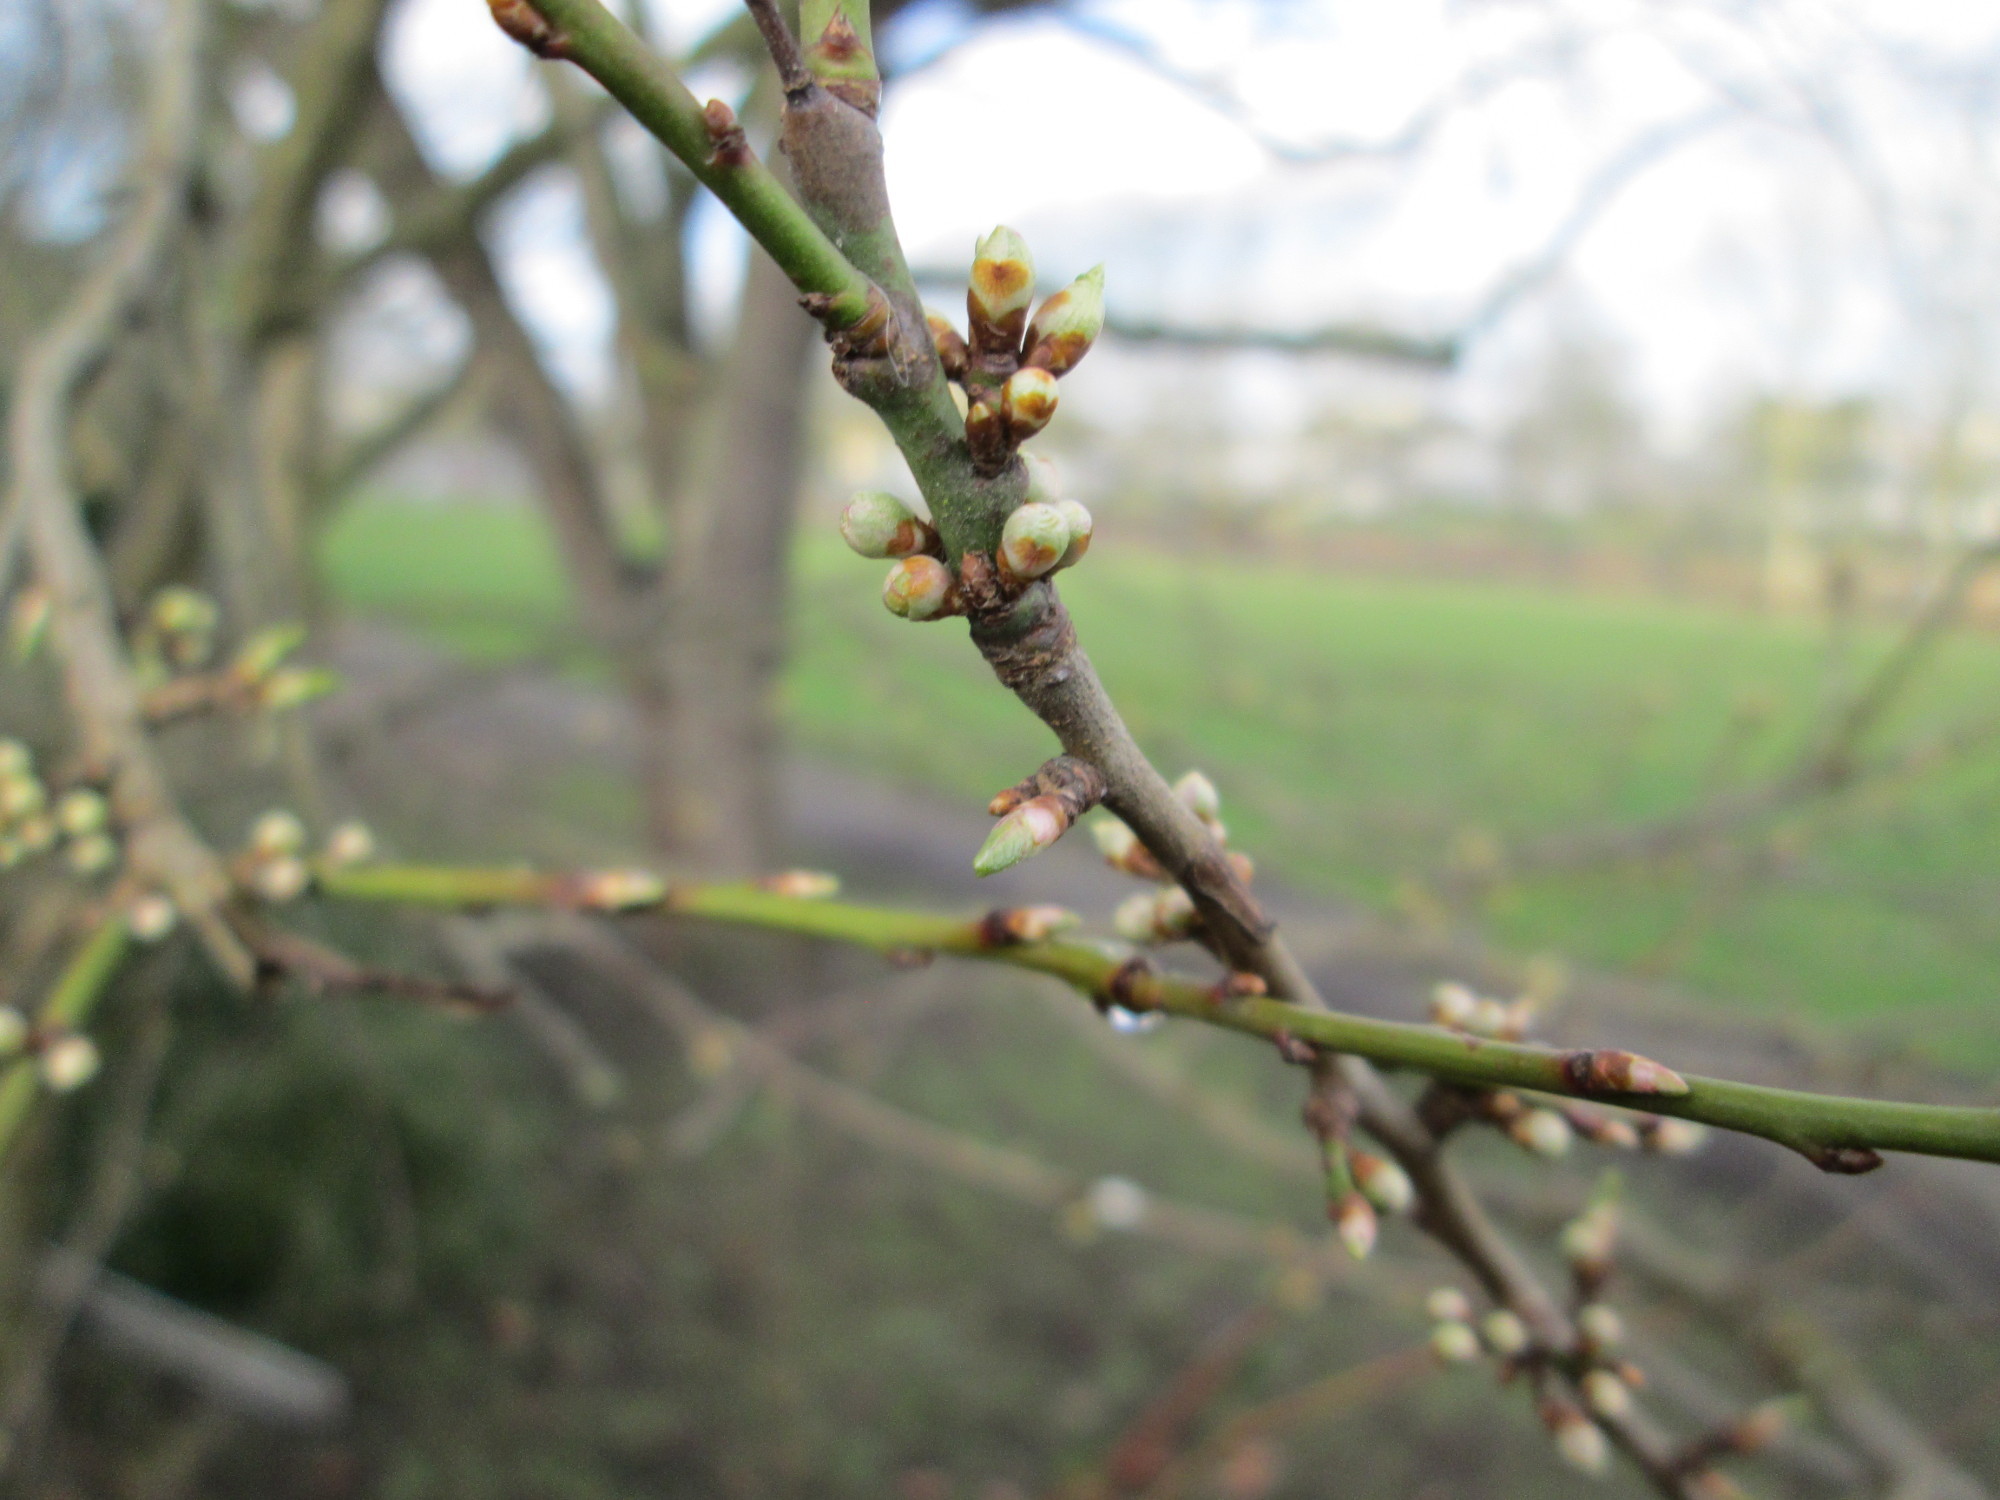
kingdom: Plantae
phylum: Tracheophyta
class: Magnoliopsida
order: Rosales
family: Rosaceae
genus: Prunus
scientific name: Prunus cerasifera
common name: Cherry plum
